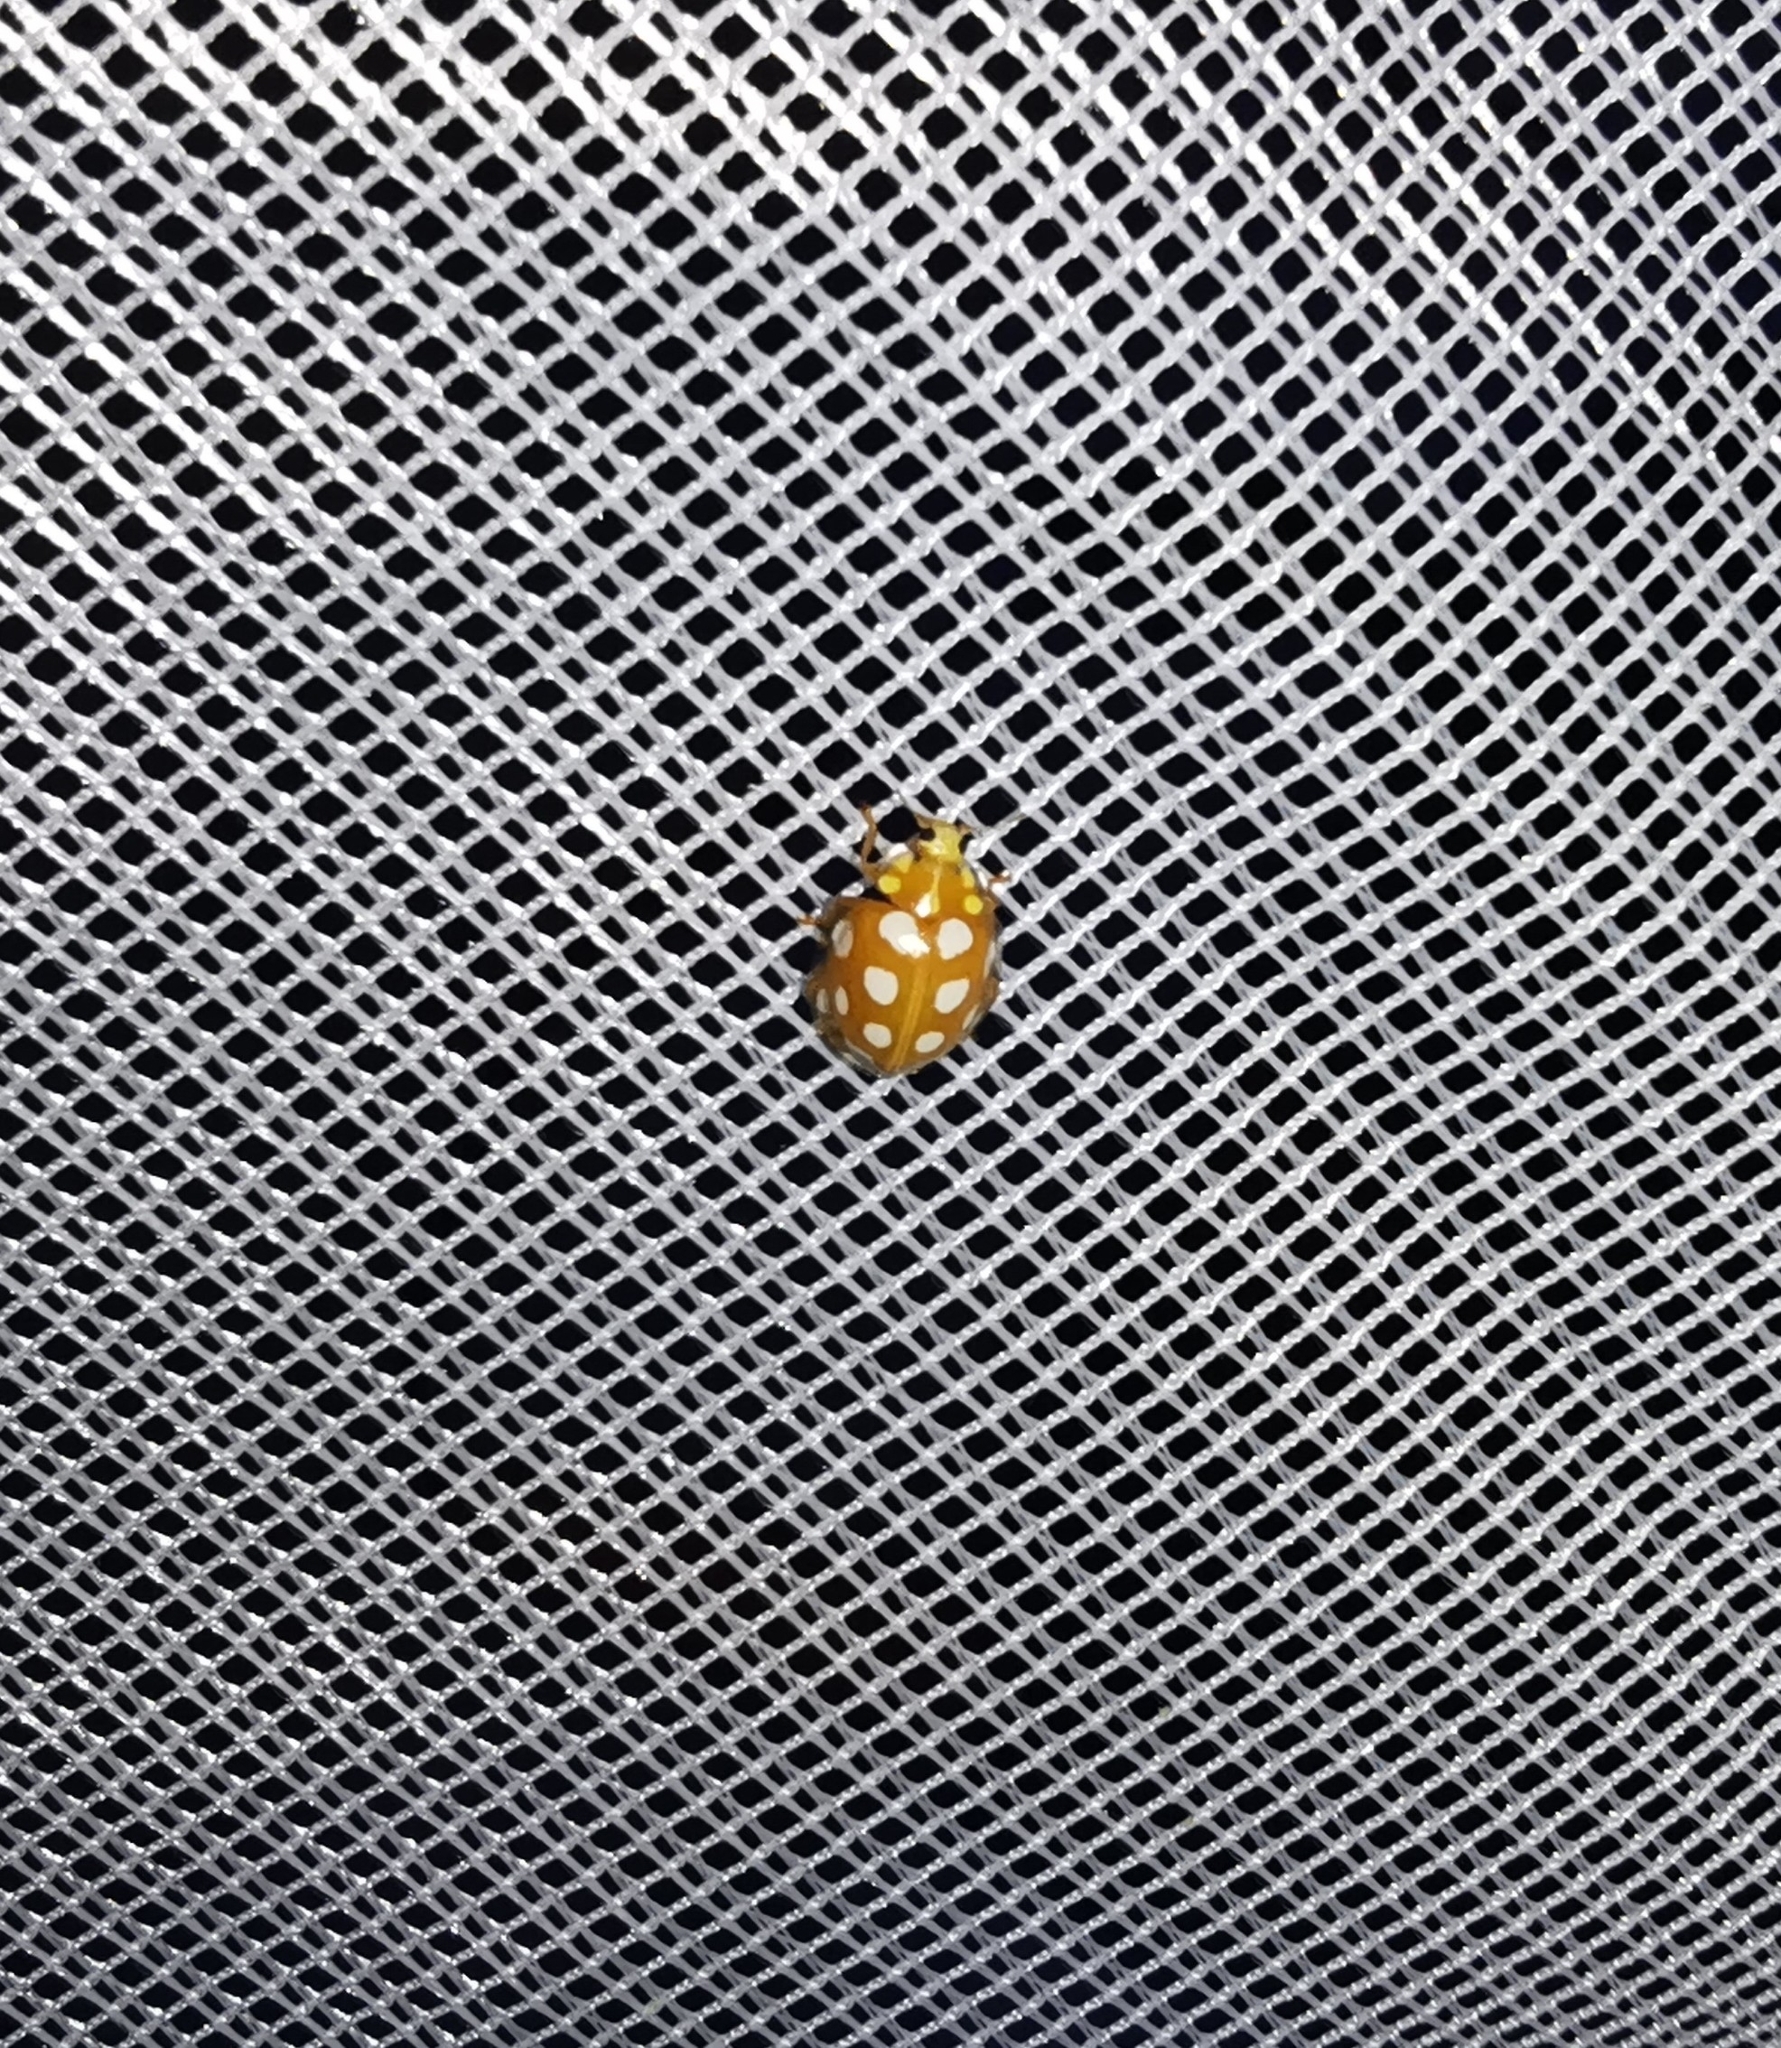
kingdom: Animalia
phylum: Arthropoda
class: Insecta
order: Coleoptera
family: Coccinellidae
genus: Halyzia
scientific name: Halyzia sedecimguttata
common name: Orange ladybird
